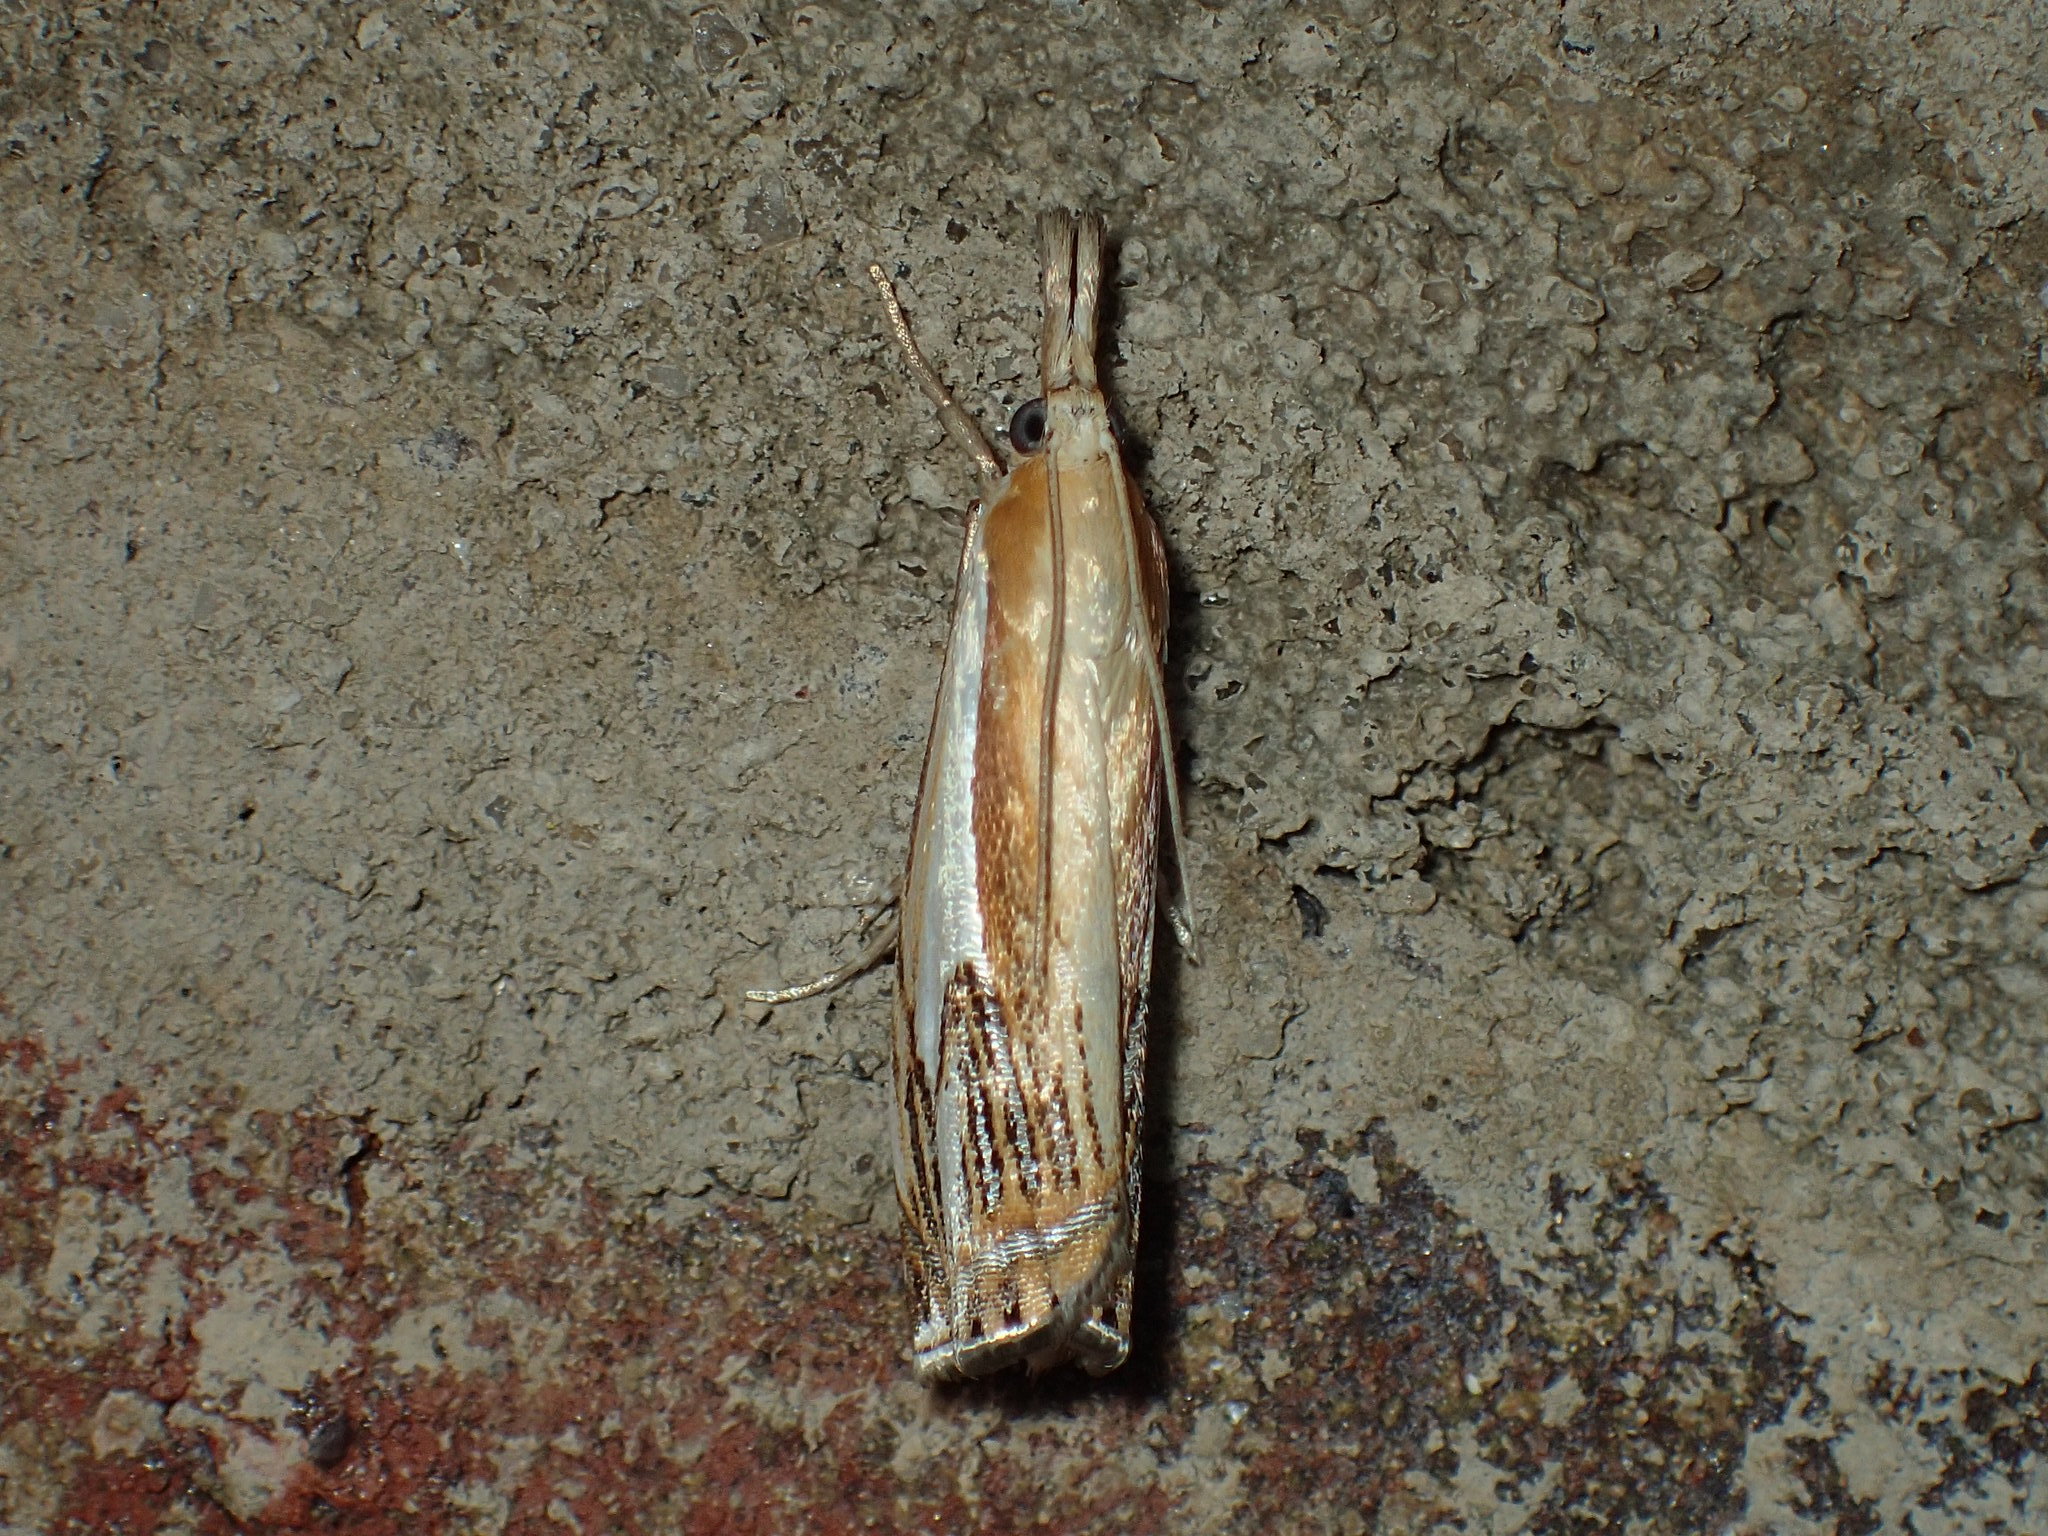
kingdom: Animalia
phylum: Arthropoda
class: Insecta
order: Lepidoptera
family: Crambidae
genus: Crambus
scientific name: Crambus agitatellus
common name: Double-banded grass-veneer
